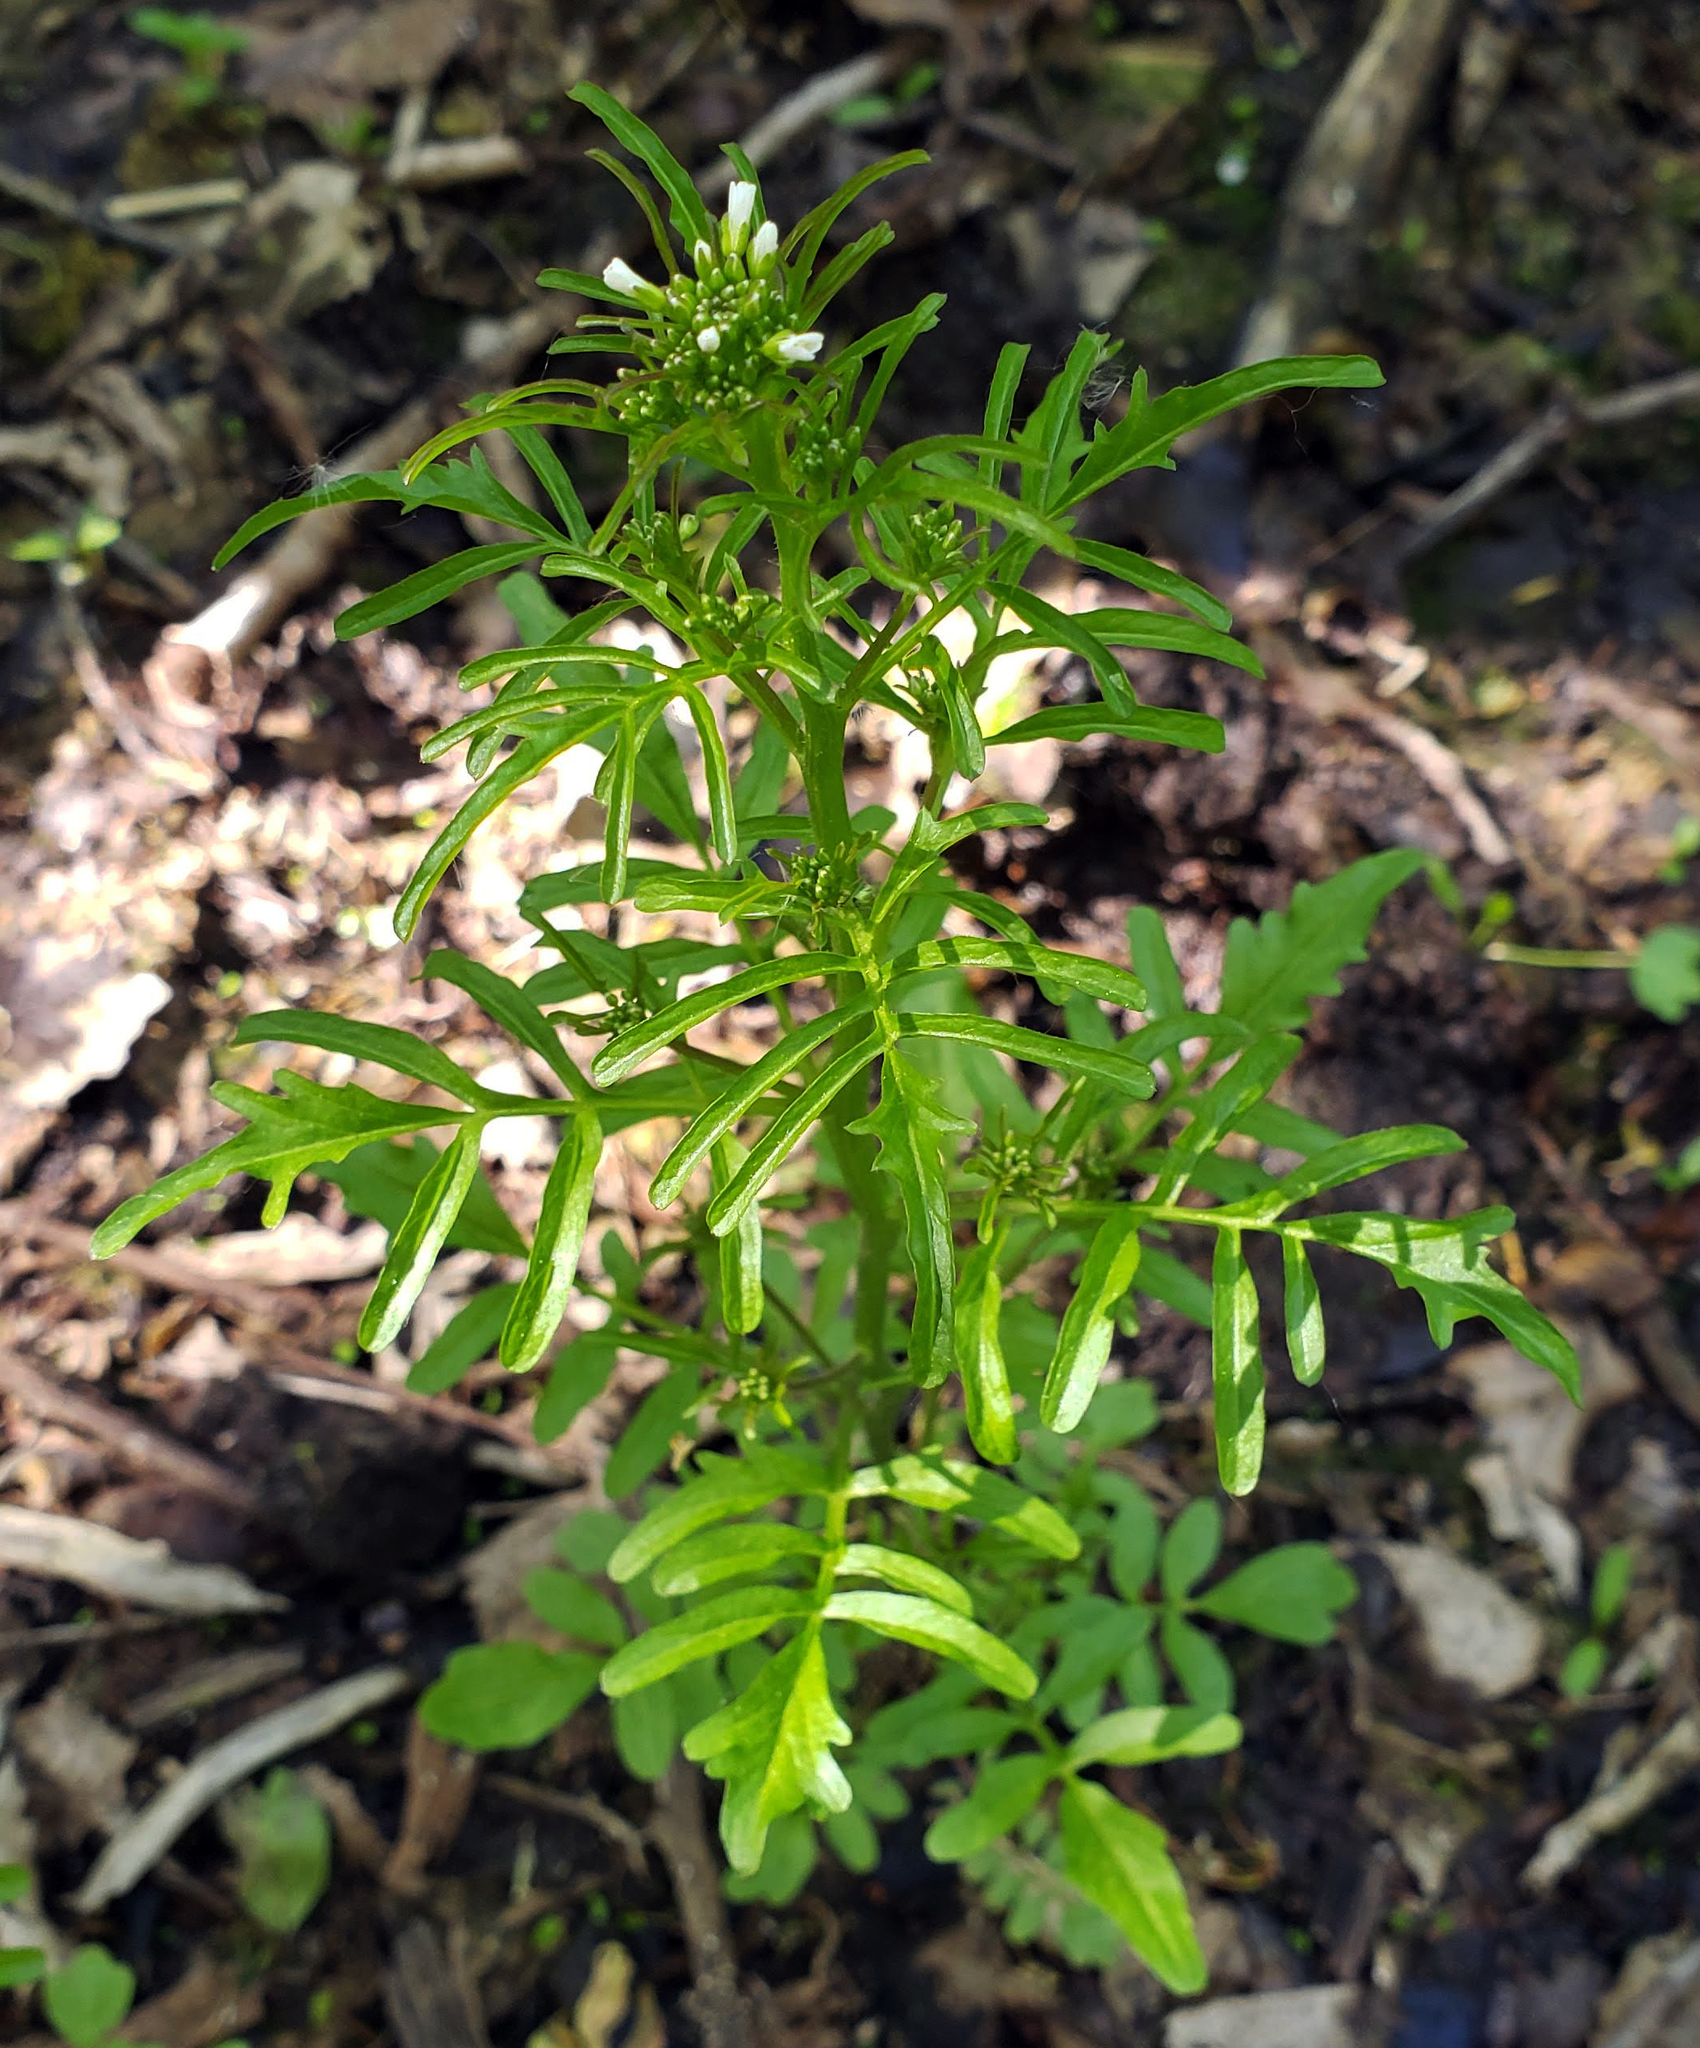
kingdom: Plantae
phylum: Tracheophyta
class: Magnoliopsida
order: Brassicales
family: Brassicaceae
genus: Cardamine
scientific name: Cardamine pensylvanica
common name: Pennsylvania bittercress
